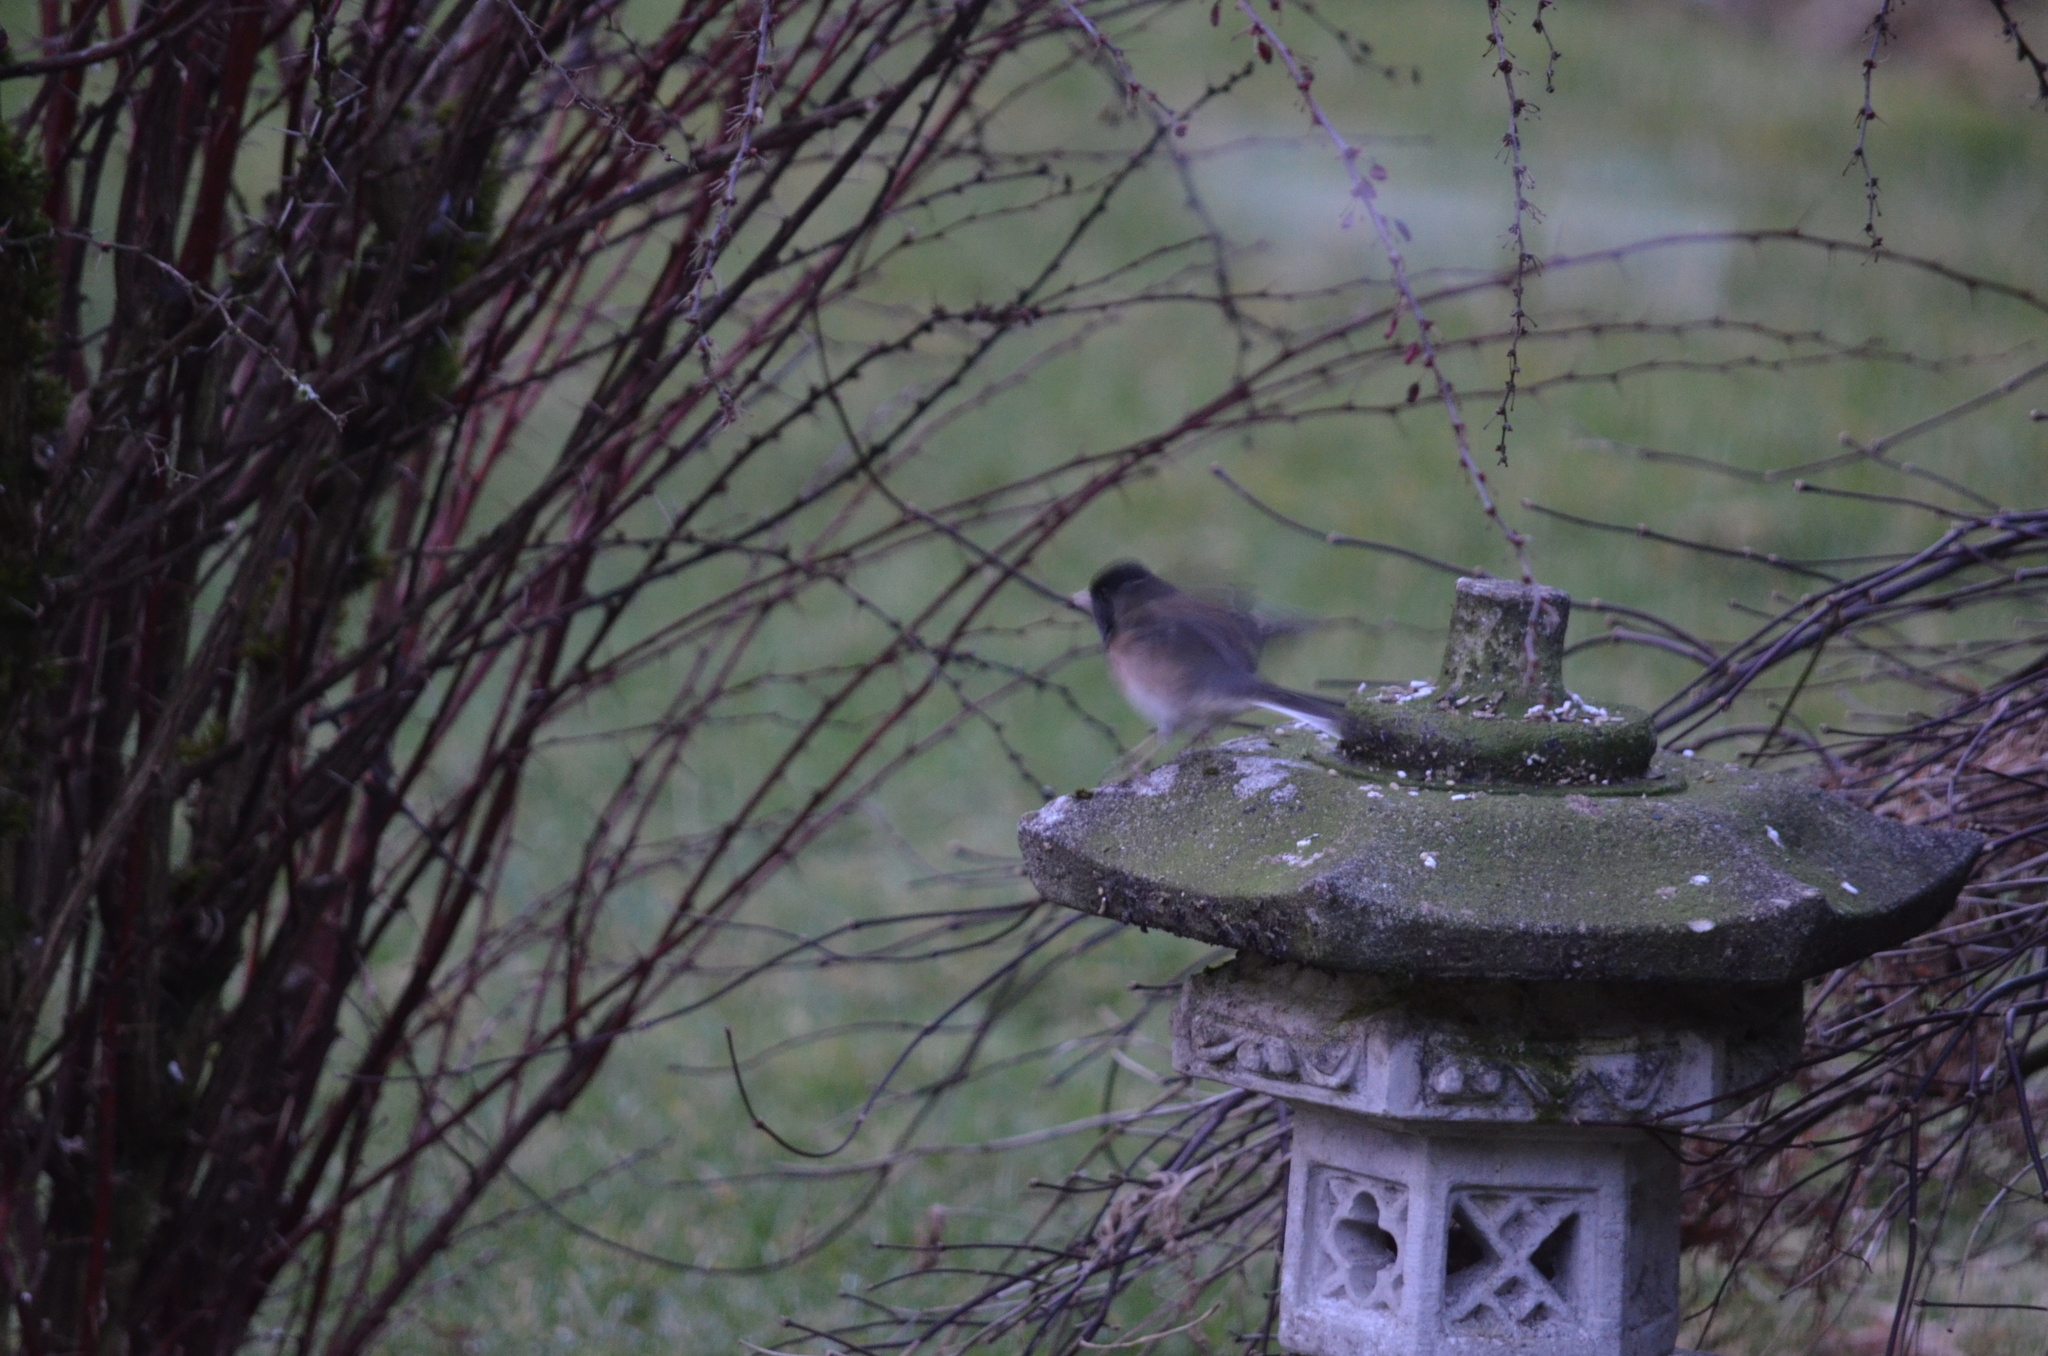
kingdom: Animalia
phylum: Chordata
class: Aves
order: Passeriformes
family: Passerellidae
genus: Junco
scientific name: Junco hyemalis
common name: Dark-eyed junco
